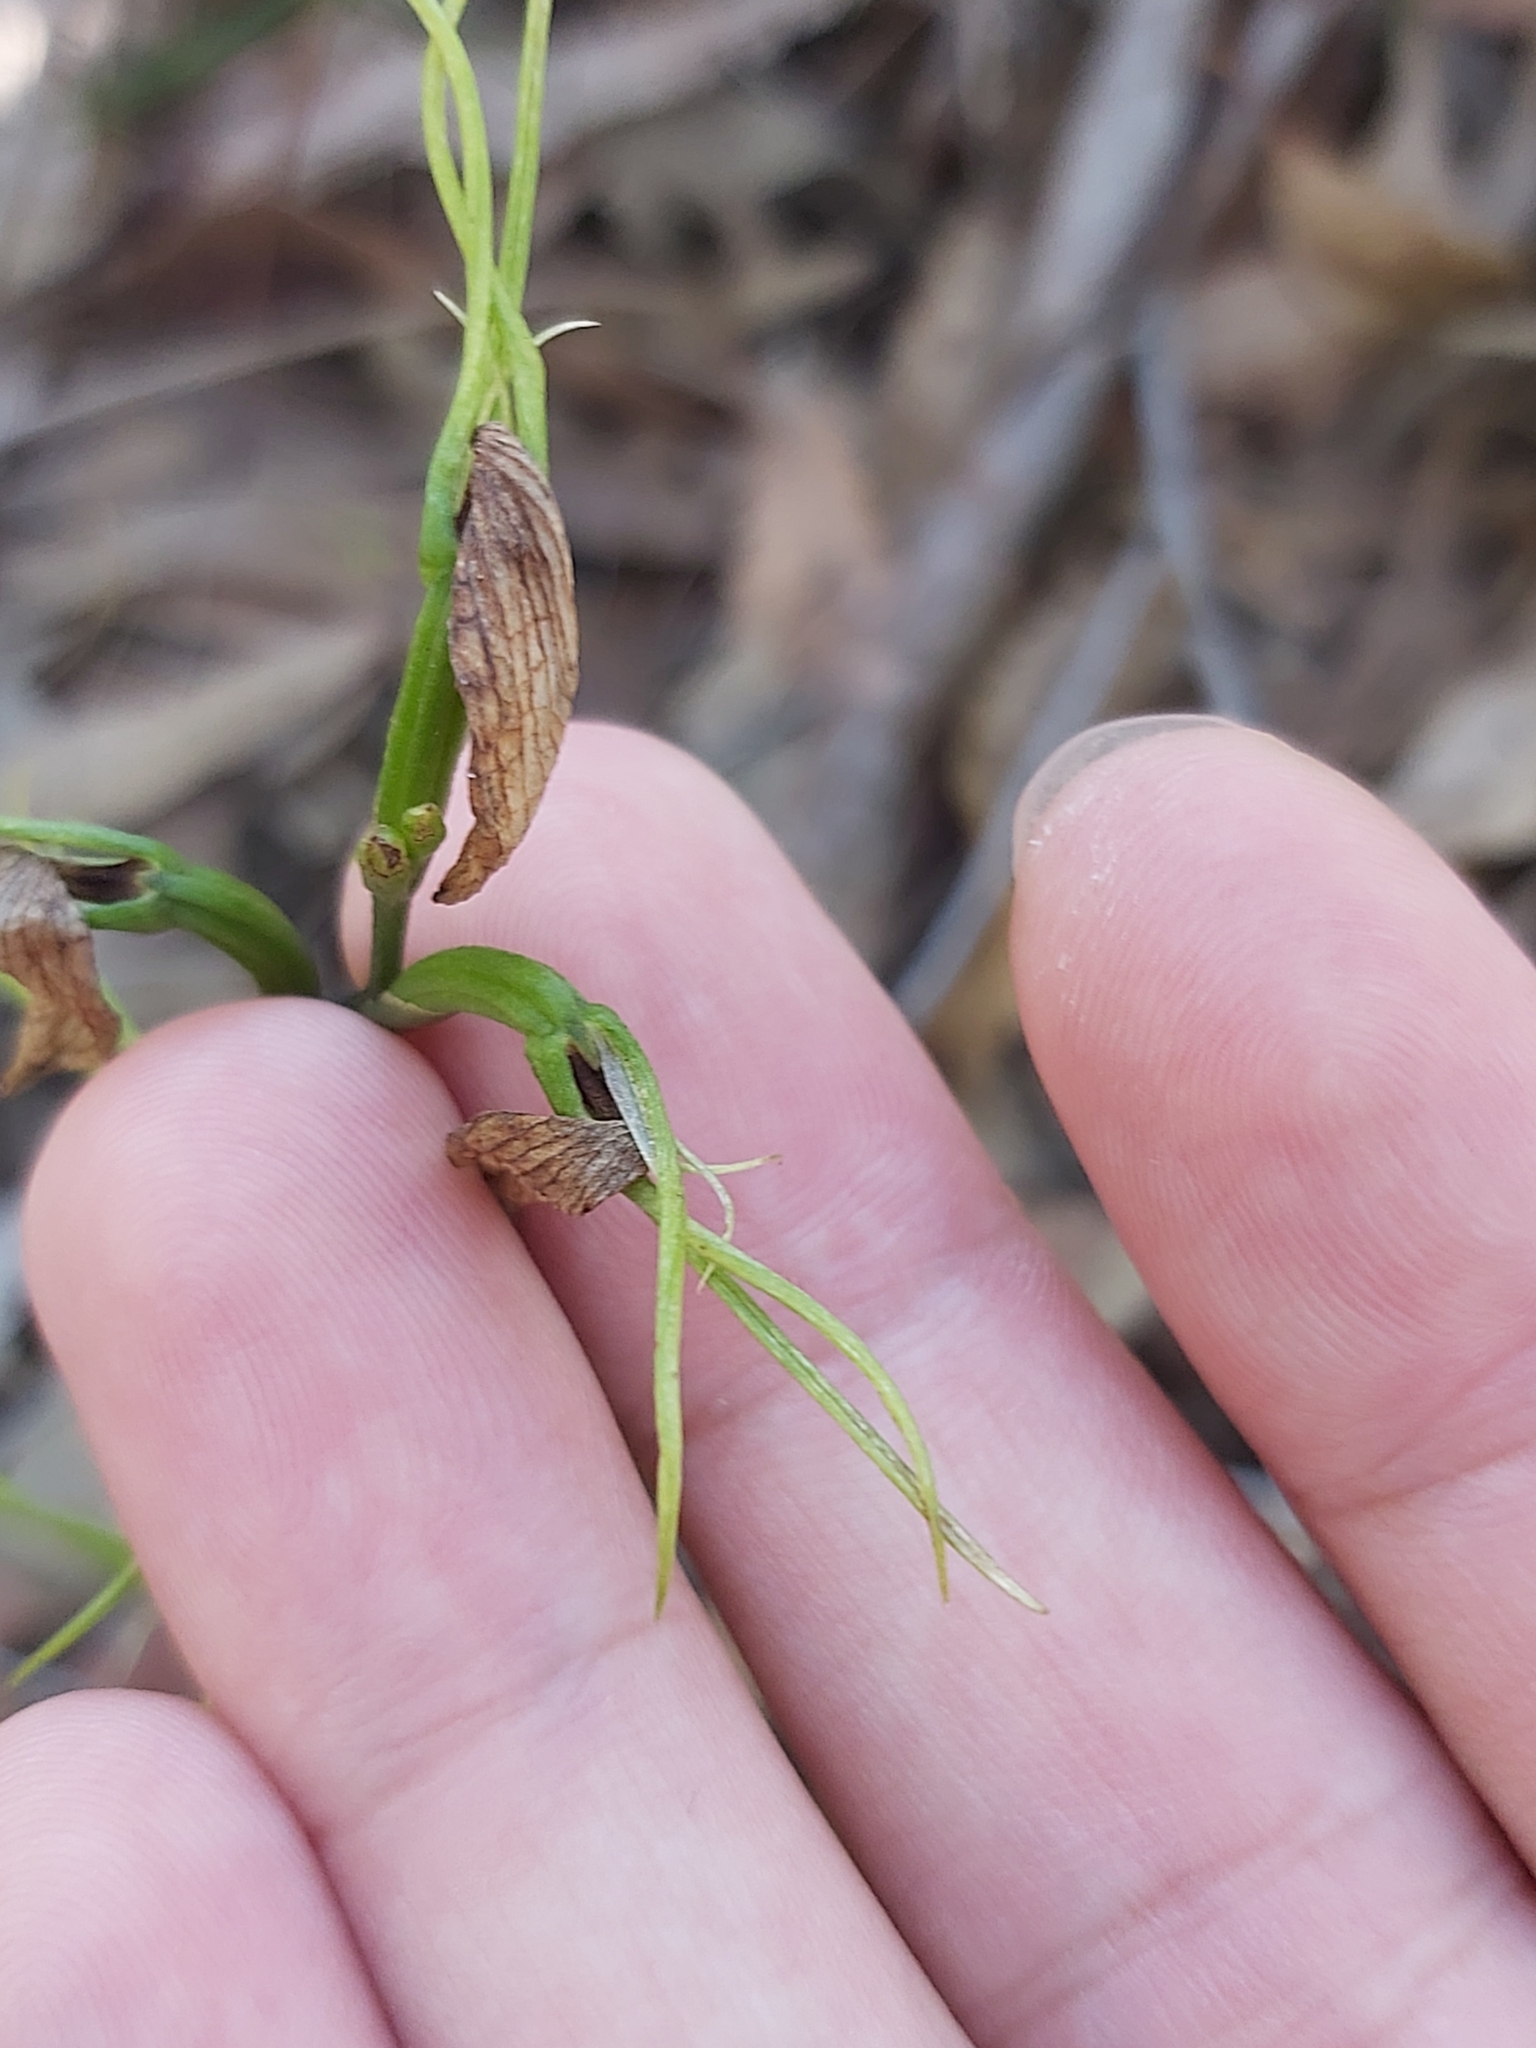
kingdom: Plantae
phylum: Tracheophyta
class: Liliopsida
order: Asparagales
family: Orchidaceae
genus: Cryptostylis
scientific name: Cryptostylis erecta
